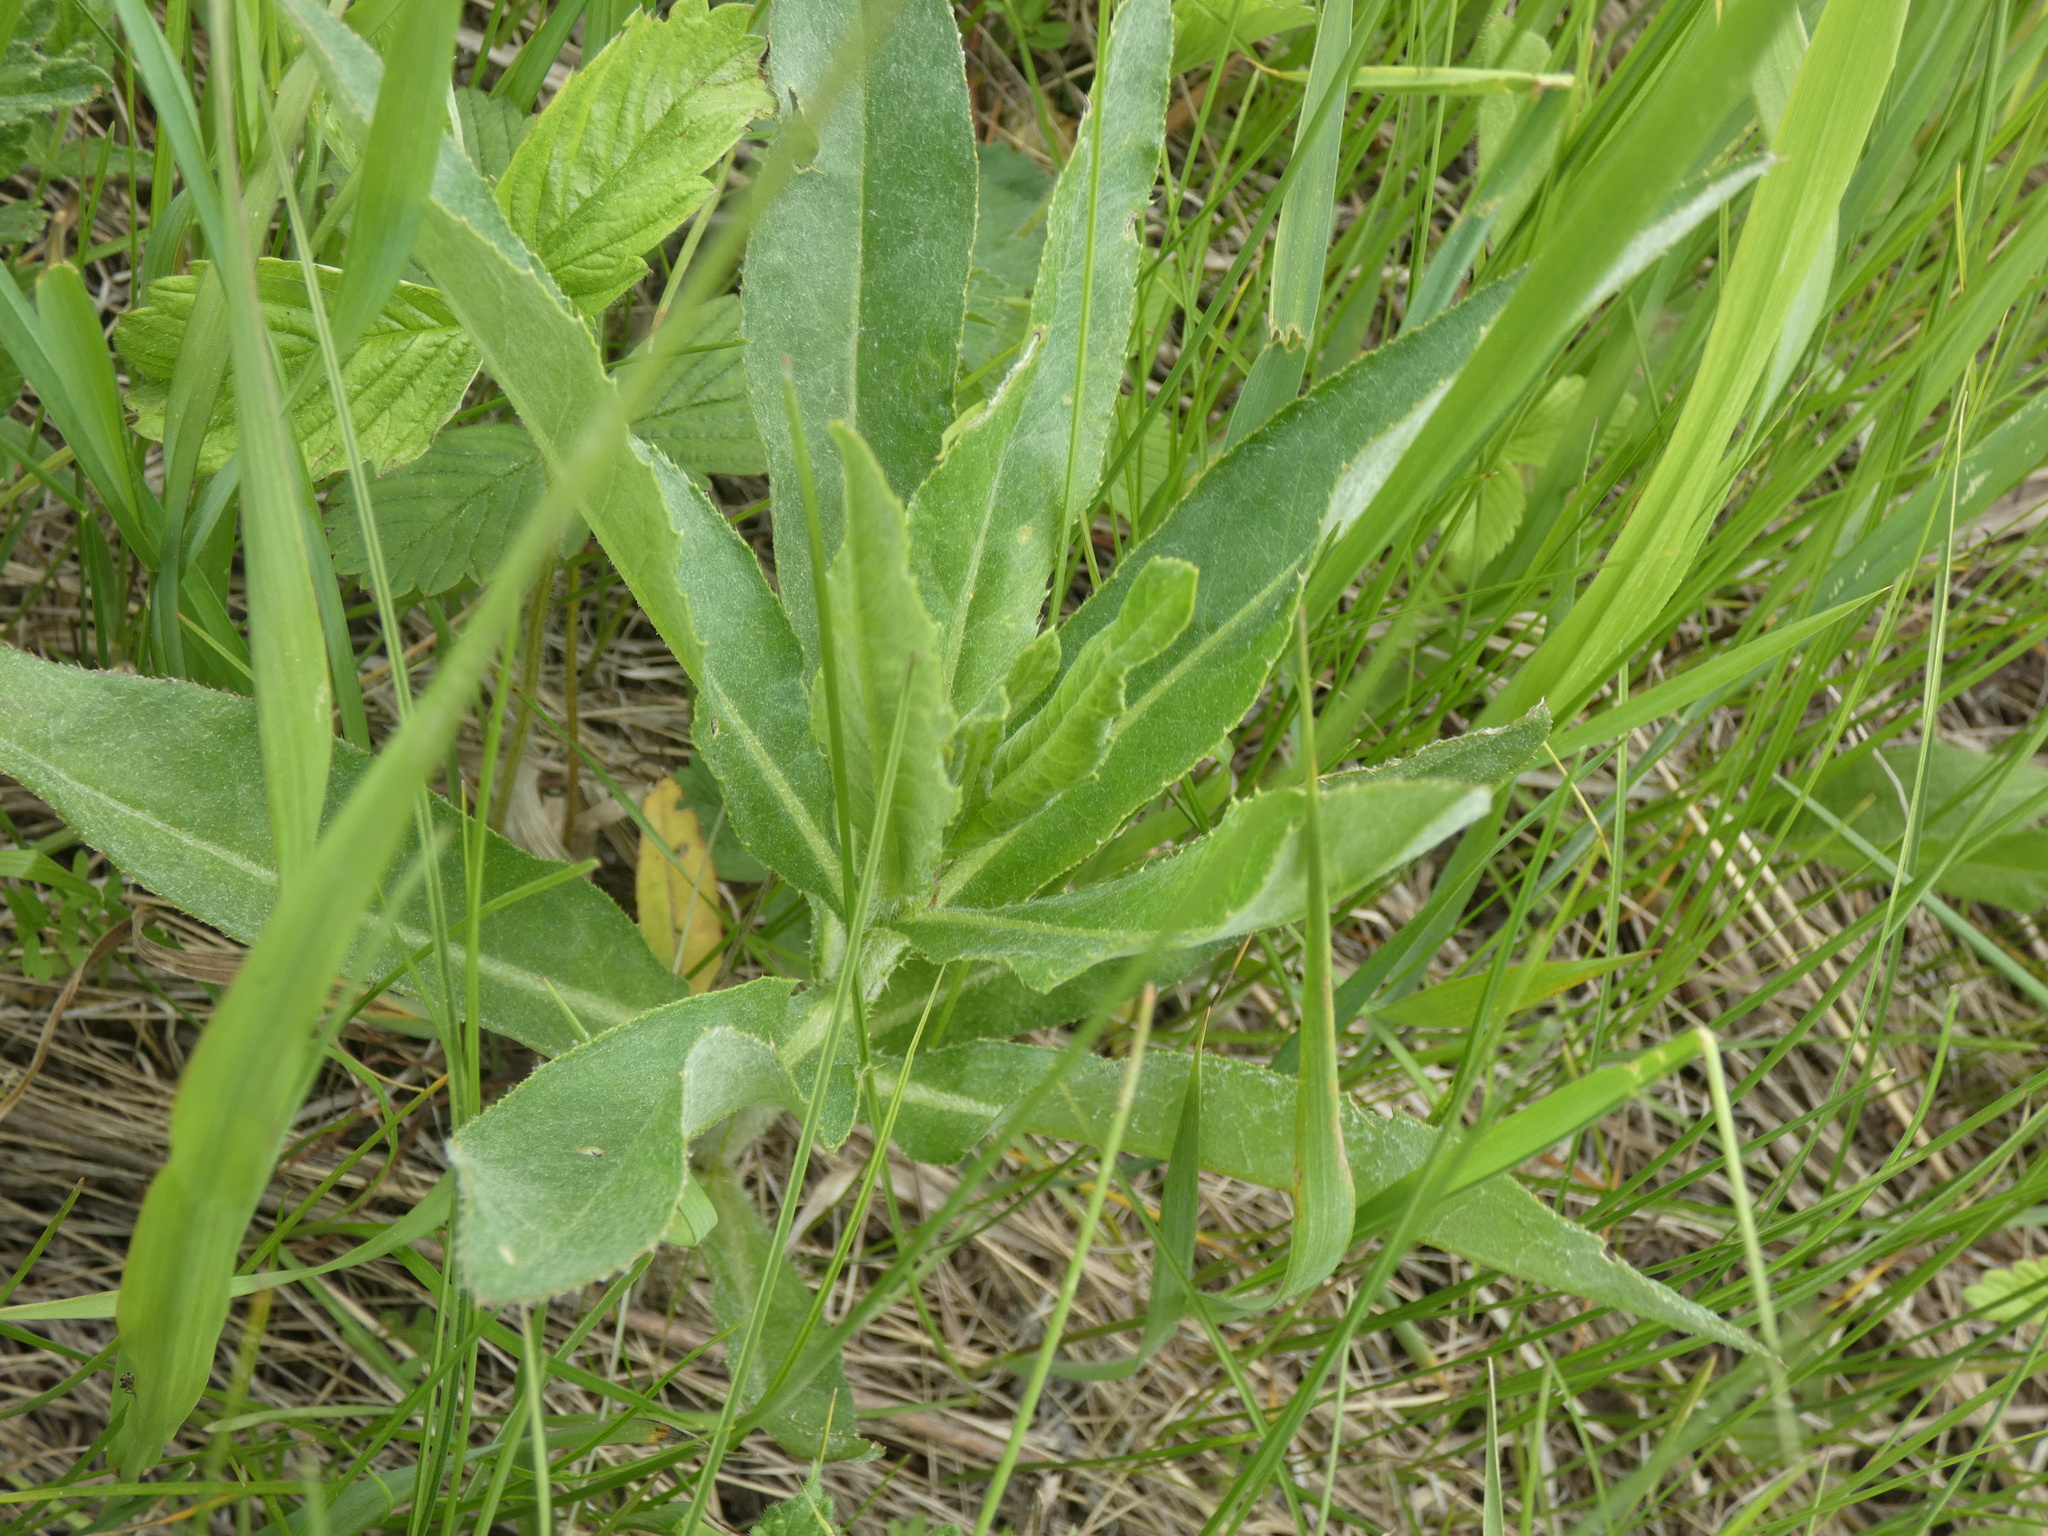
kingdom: Plantae
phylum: Tracheophyta
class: Magnoliopsida
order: Asterales
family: Asteraceae
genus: Cirsium
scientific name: Cirsium arvense
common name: Creeping thistle
